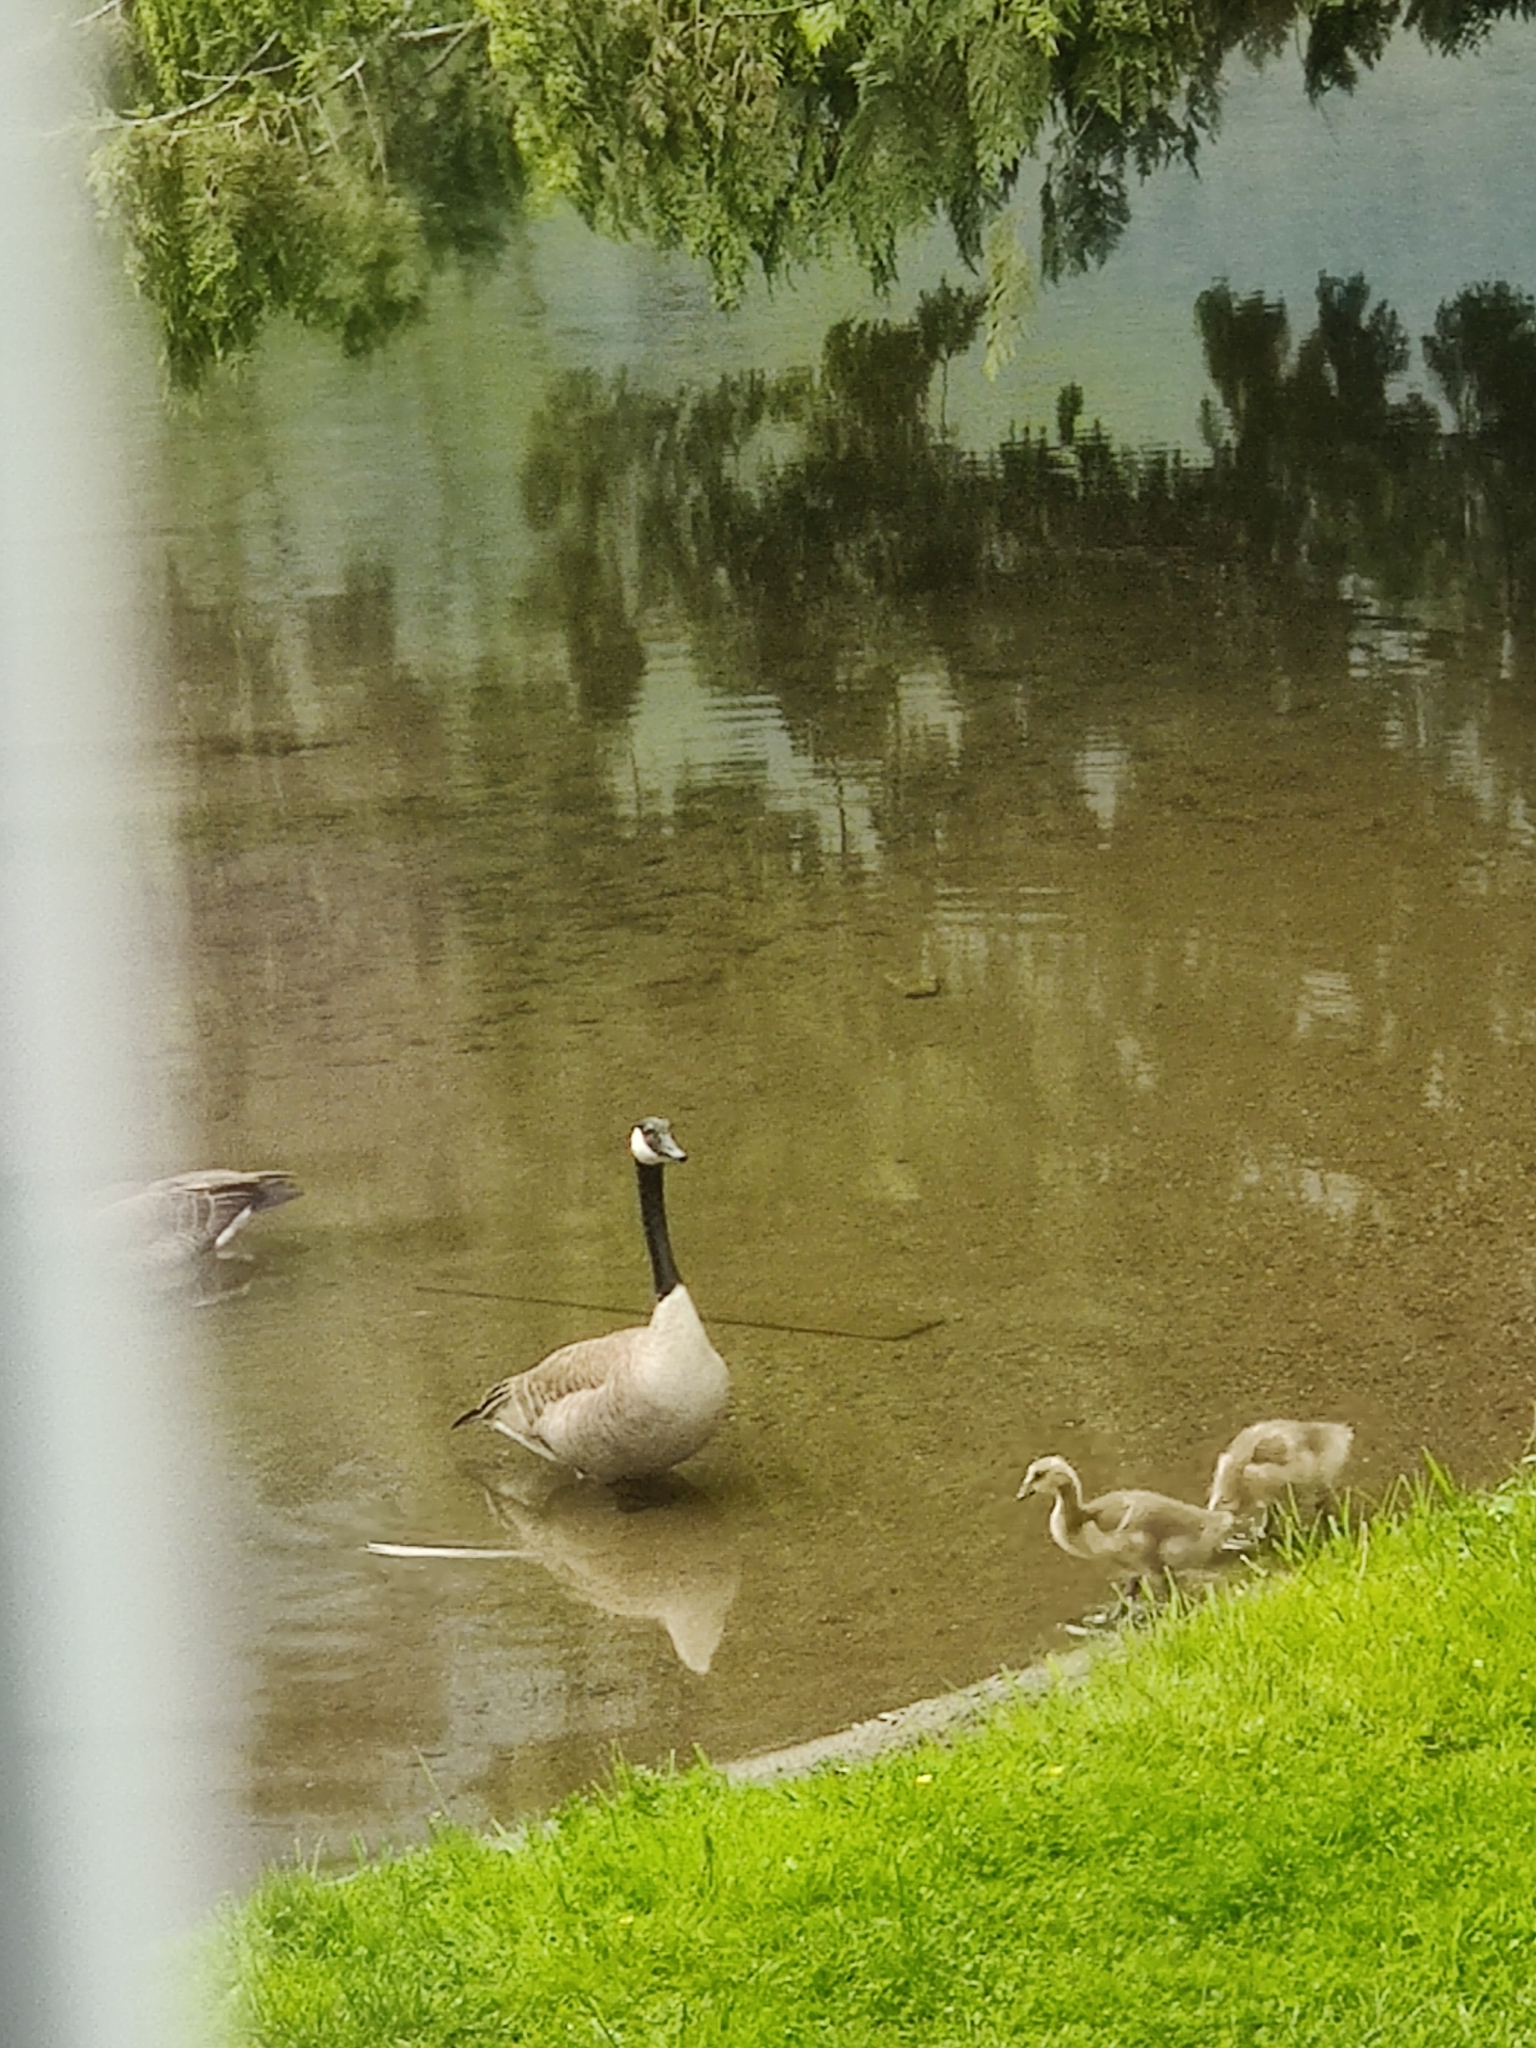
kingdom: Animalia
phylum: Chordata
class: Aves
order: Anseriformes
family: Anatidae
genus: Branta
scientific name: Branta canadensis
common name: Canada goose
